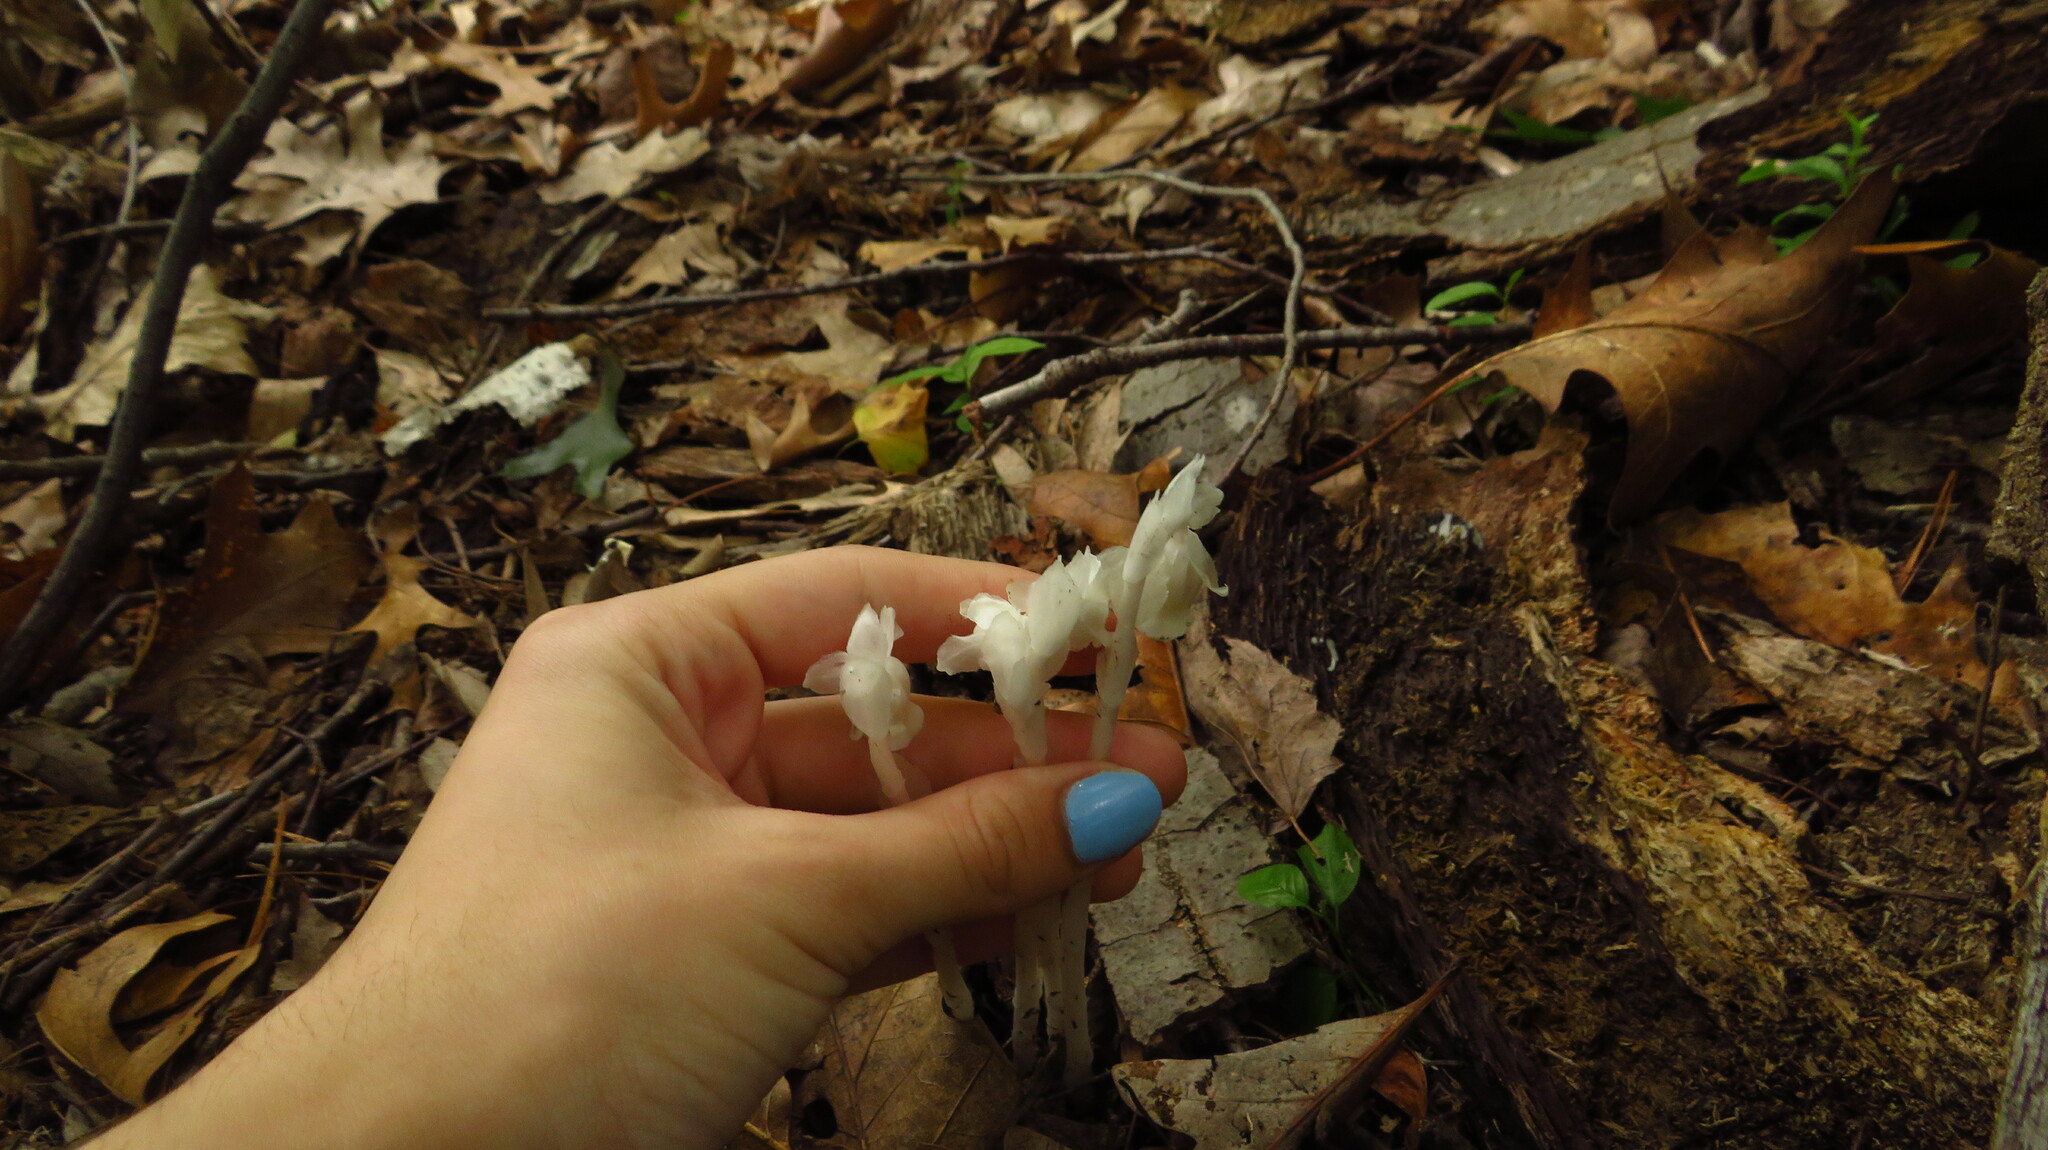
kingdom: Plantae
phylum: Tracheophyta
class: Magnoliopsida
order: Ericales
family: Ericaceae
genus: Monotropa
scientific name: Monotropa uniflora
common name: Convulsion root
